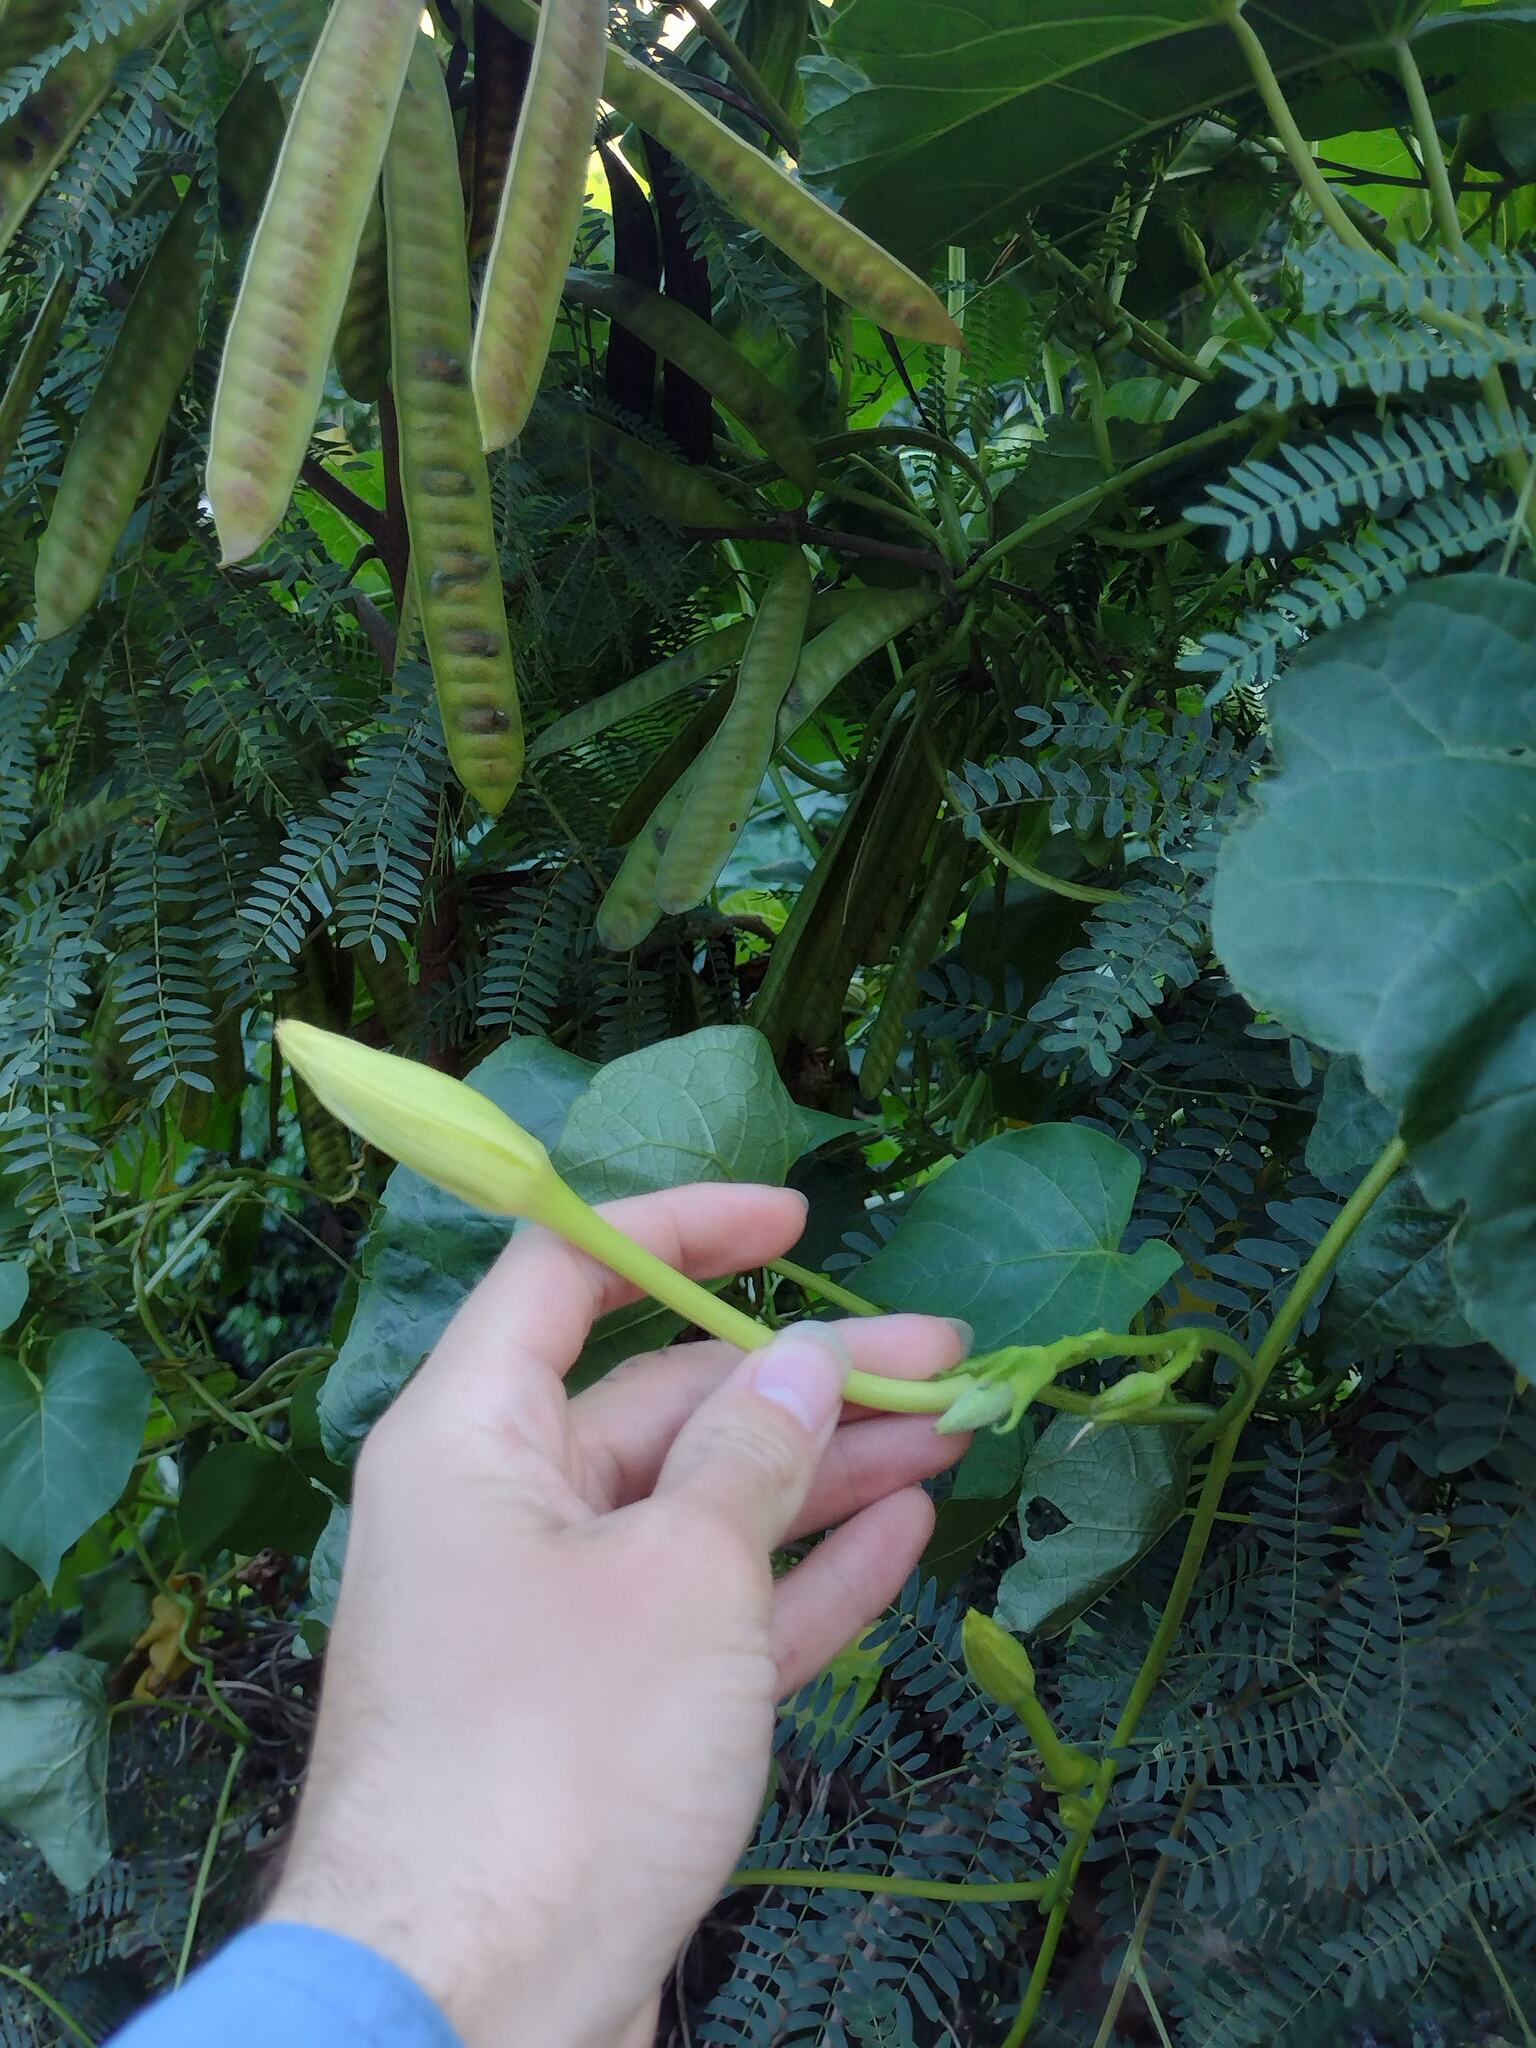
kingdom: Plantae
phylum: Tracheophyta
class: Magnoliopsida
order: Solanales
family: Convolvulaceae
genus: Ipomoea
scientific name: Ipomoea alba
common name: Moonflower
